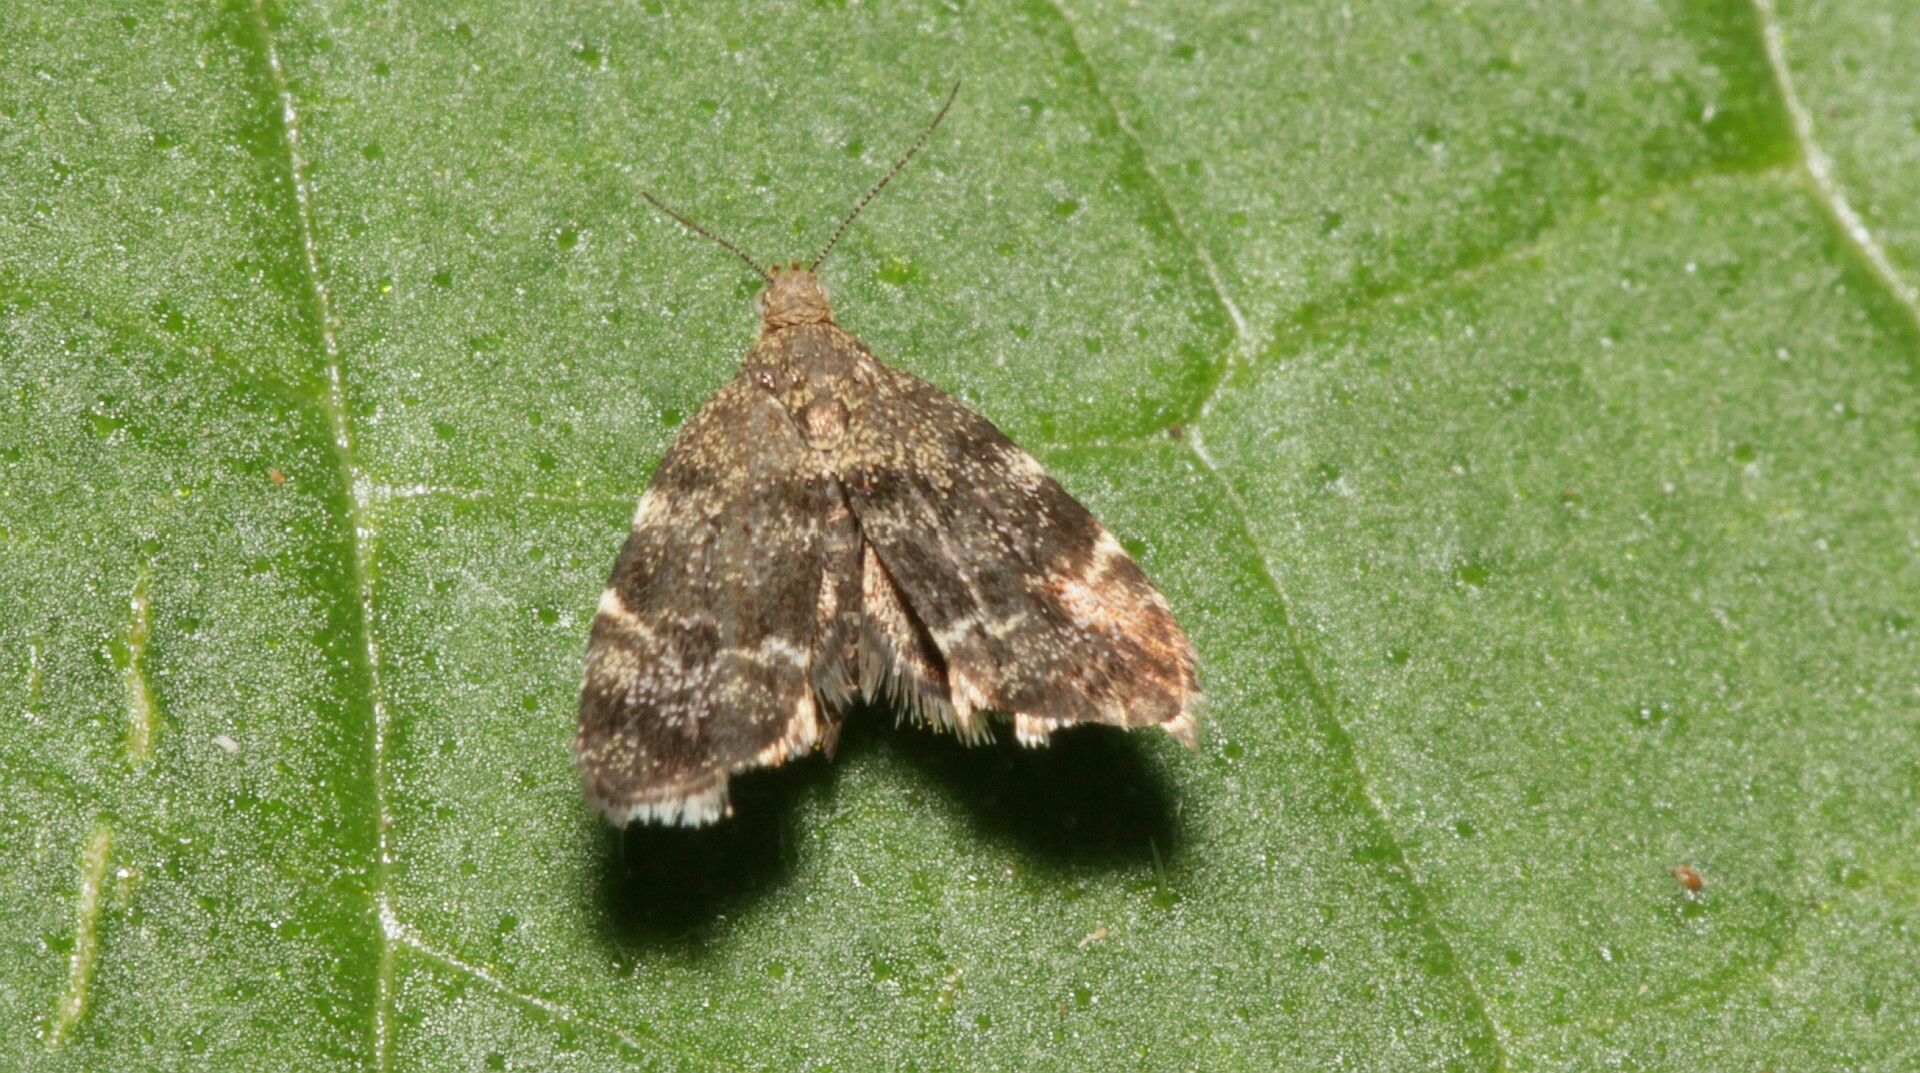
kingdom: Animalia
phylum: Arthropoda
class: Insecta
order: Lepidoptera
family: Choreutidae
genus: Anthophila
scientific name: Anthophila fabriciana
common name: Nettle-tap
